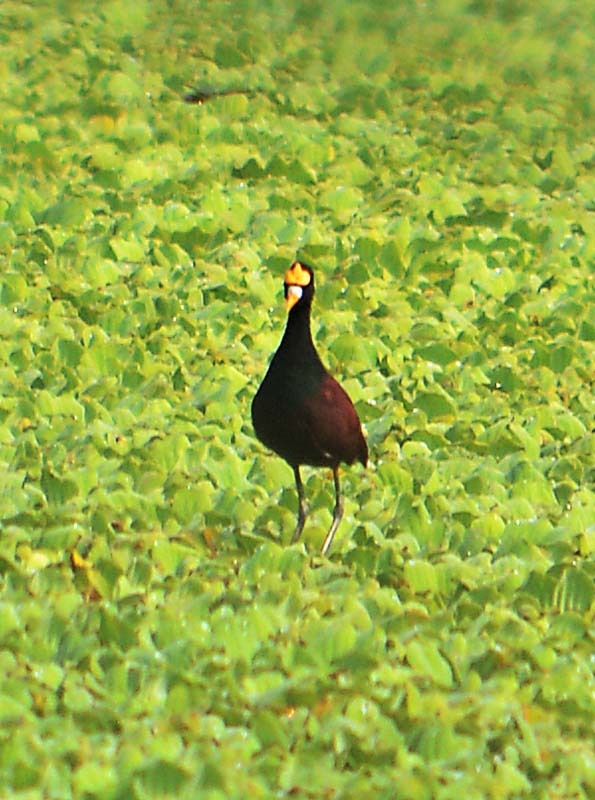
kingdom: Animalia
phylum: Chordata
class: Aves
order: Charadriiformes
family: Jacanidae
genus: Jacana
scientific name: Jacana spinosa
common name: Northern jacana
